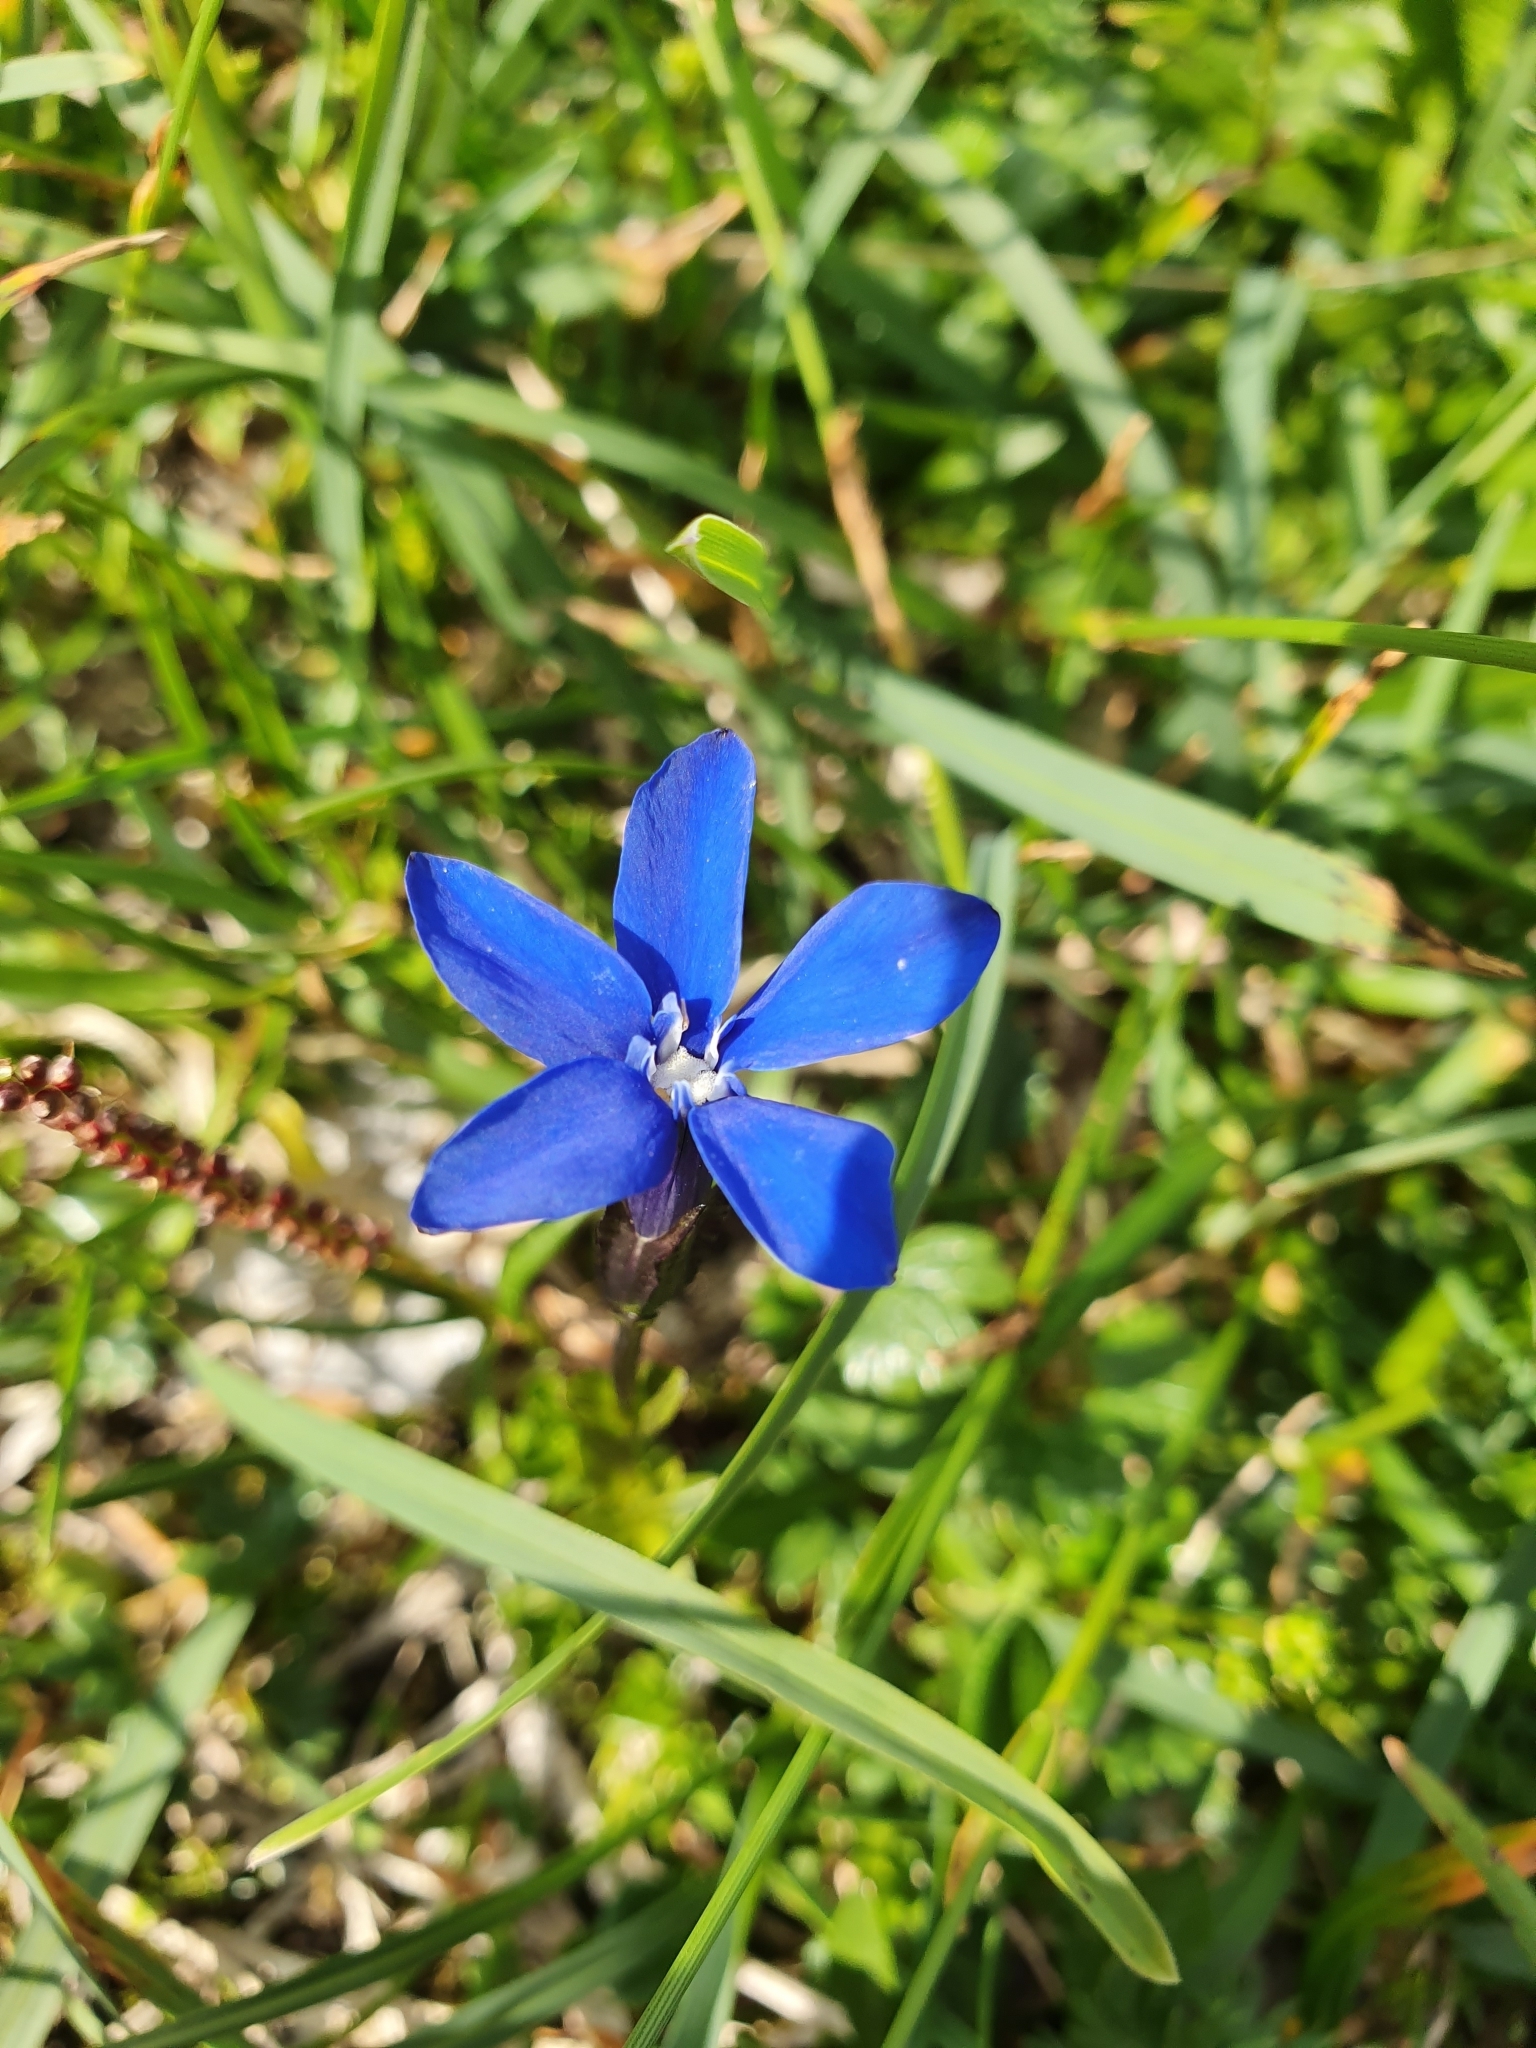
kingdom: Plantae
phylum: Tracheophyta
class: Magnoliopsida
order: Gentianales
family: Gentianaceae
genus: Gentiana
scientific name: Gentiana bavarica
